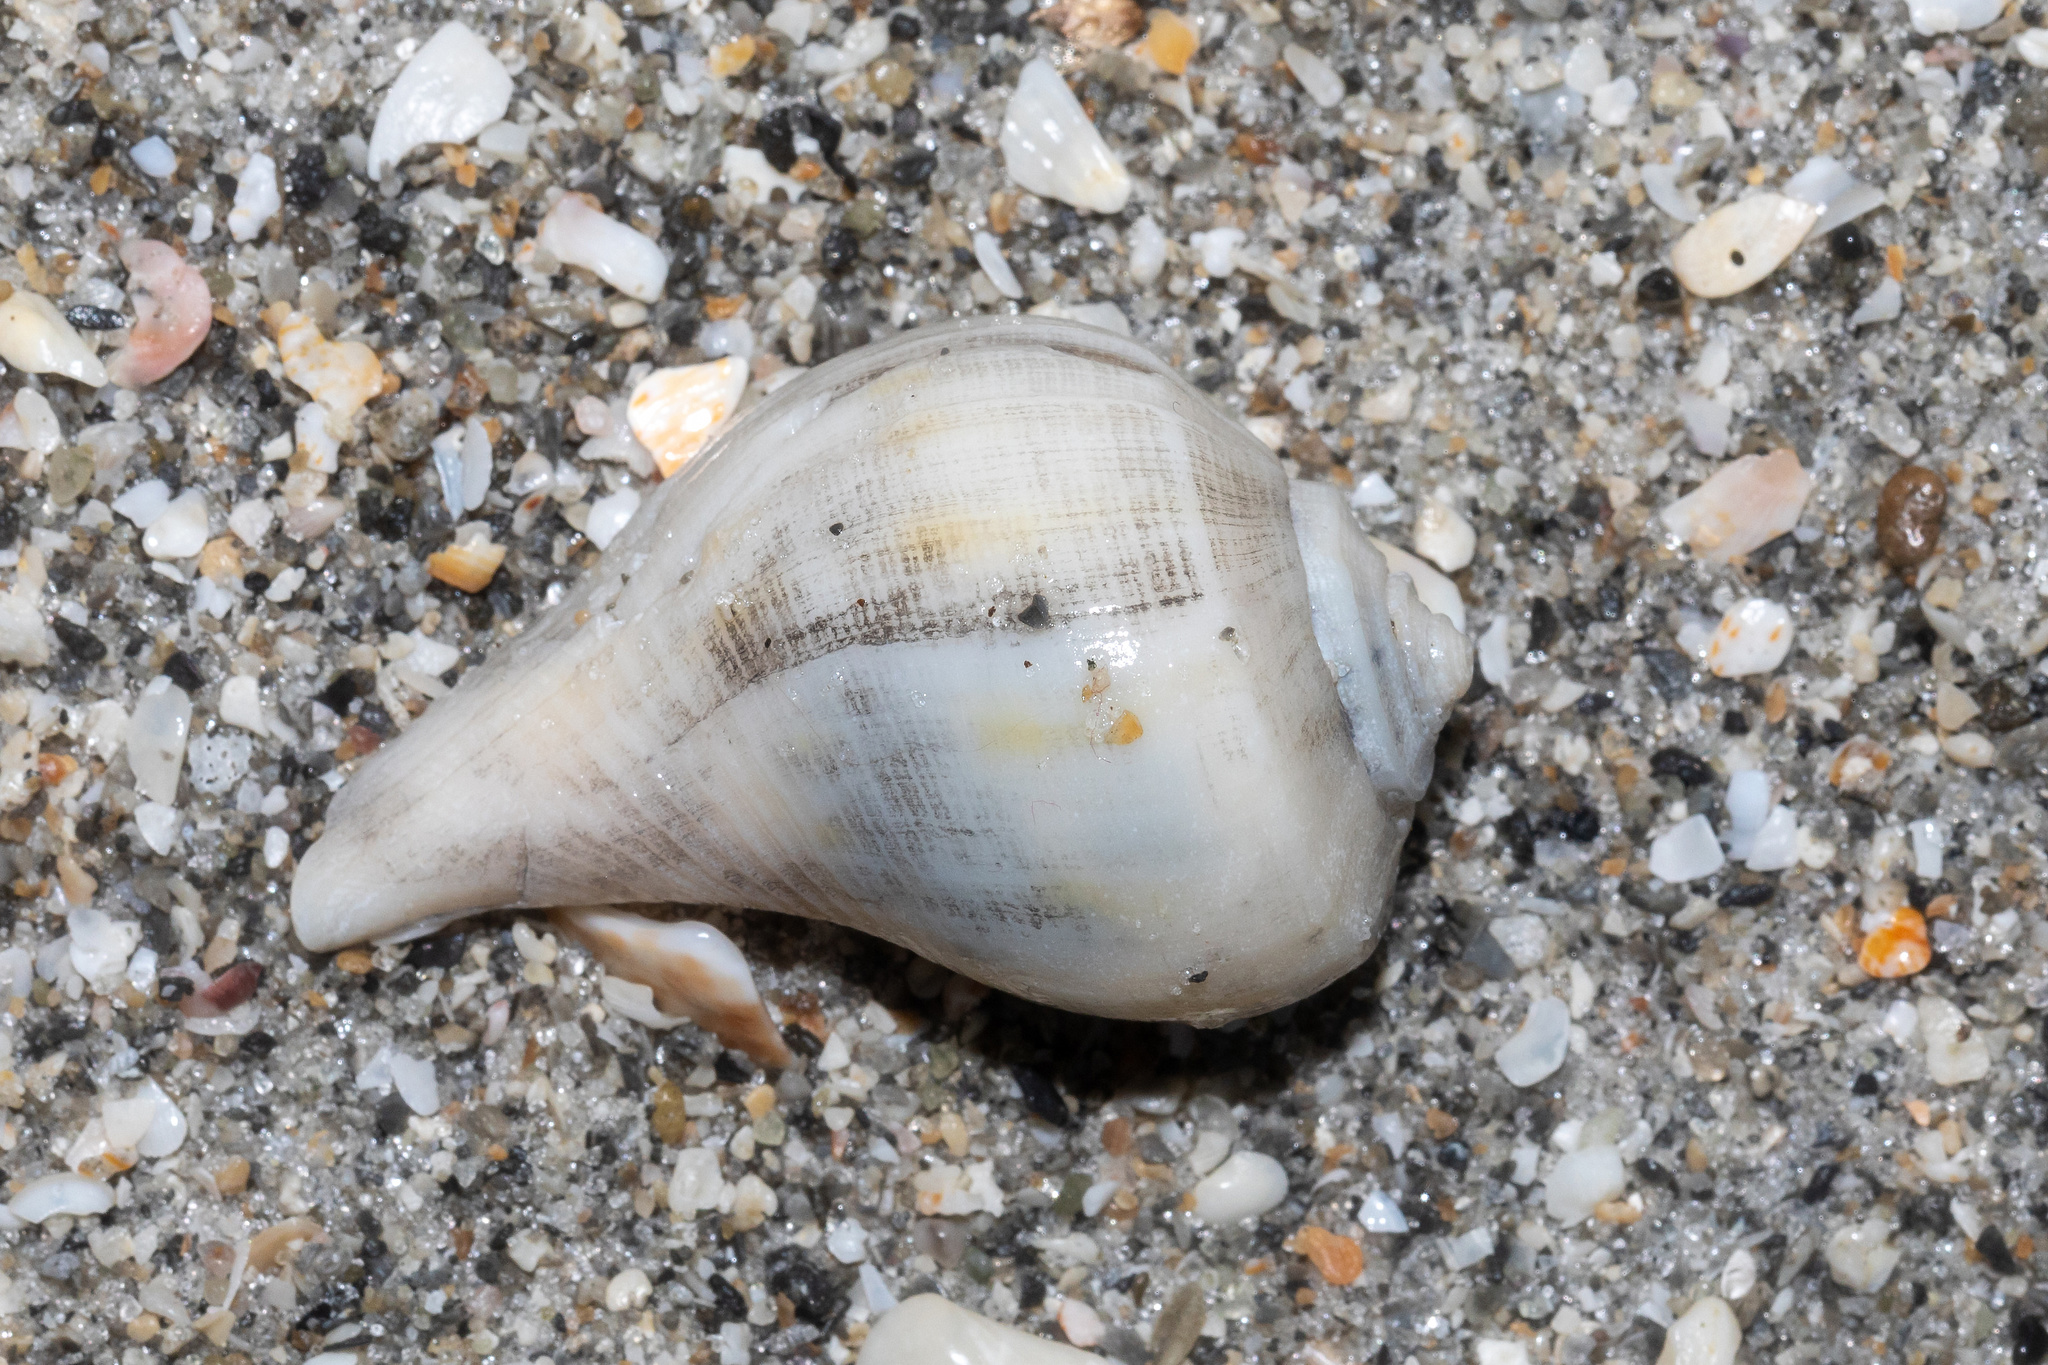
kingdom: Animalia
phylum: Mollusca
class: Gastropoda
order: Neogastropoda
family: Busyconidae
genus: Fulguropsis
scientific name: Fulguropsis pyruloides
